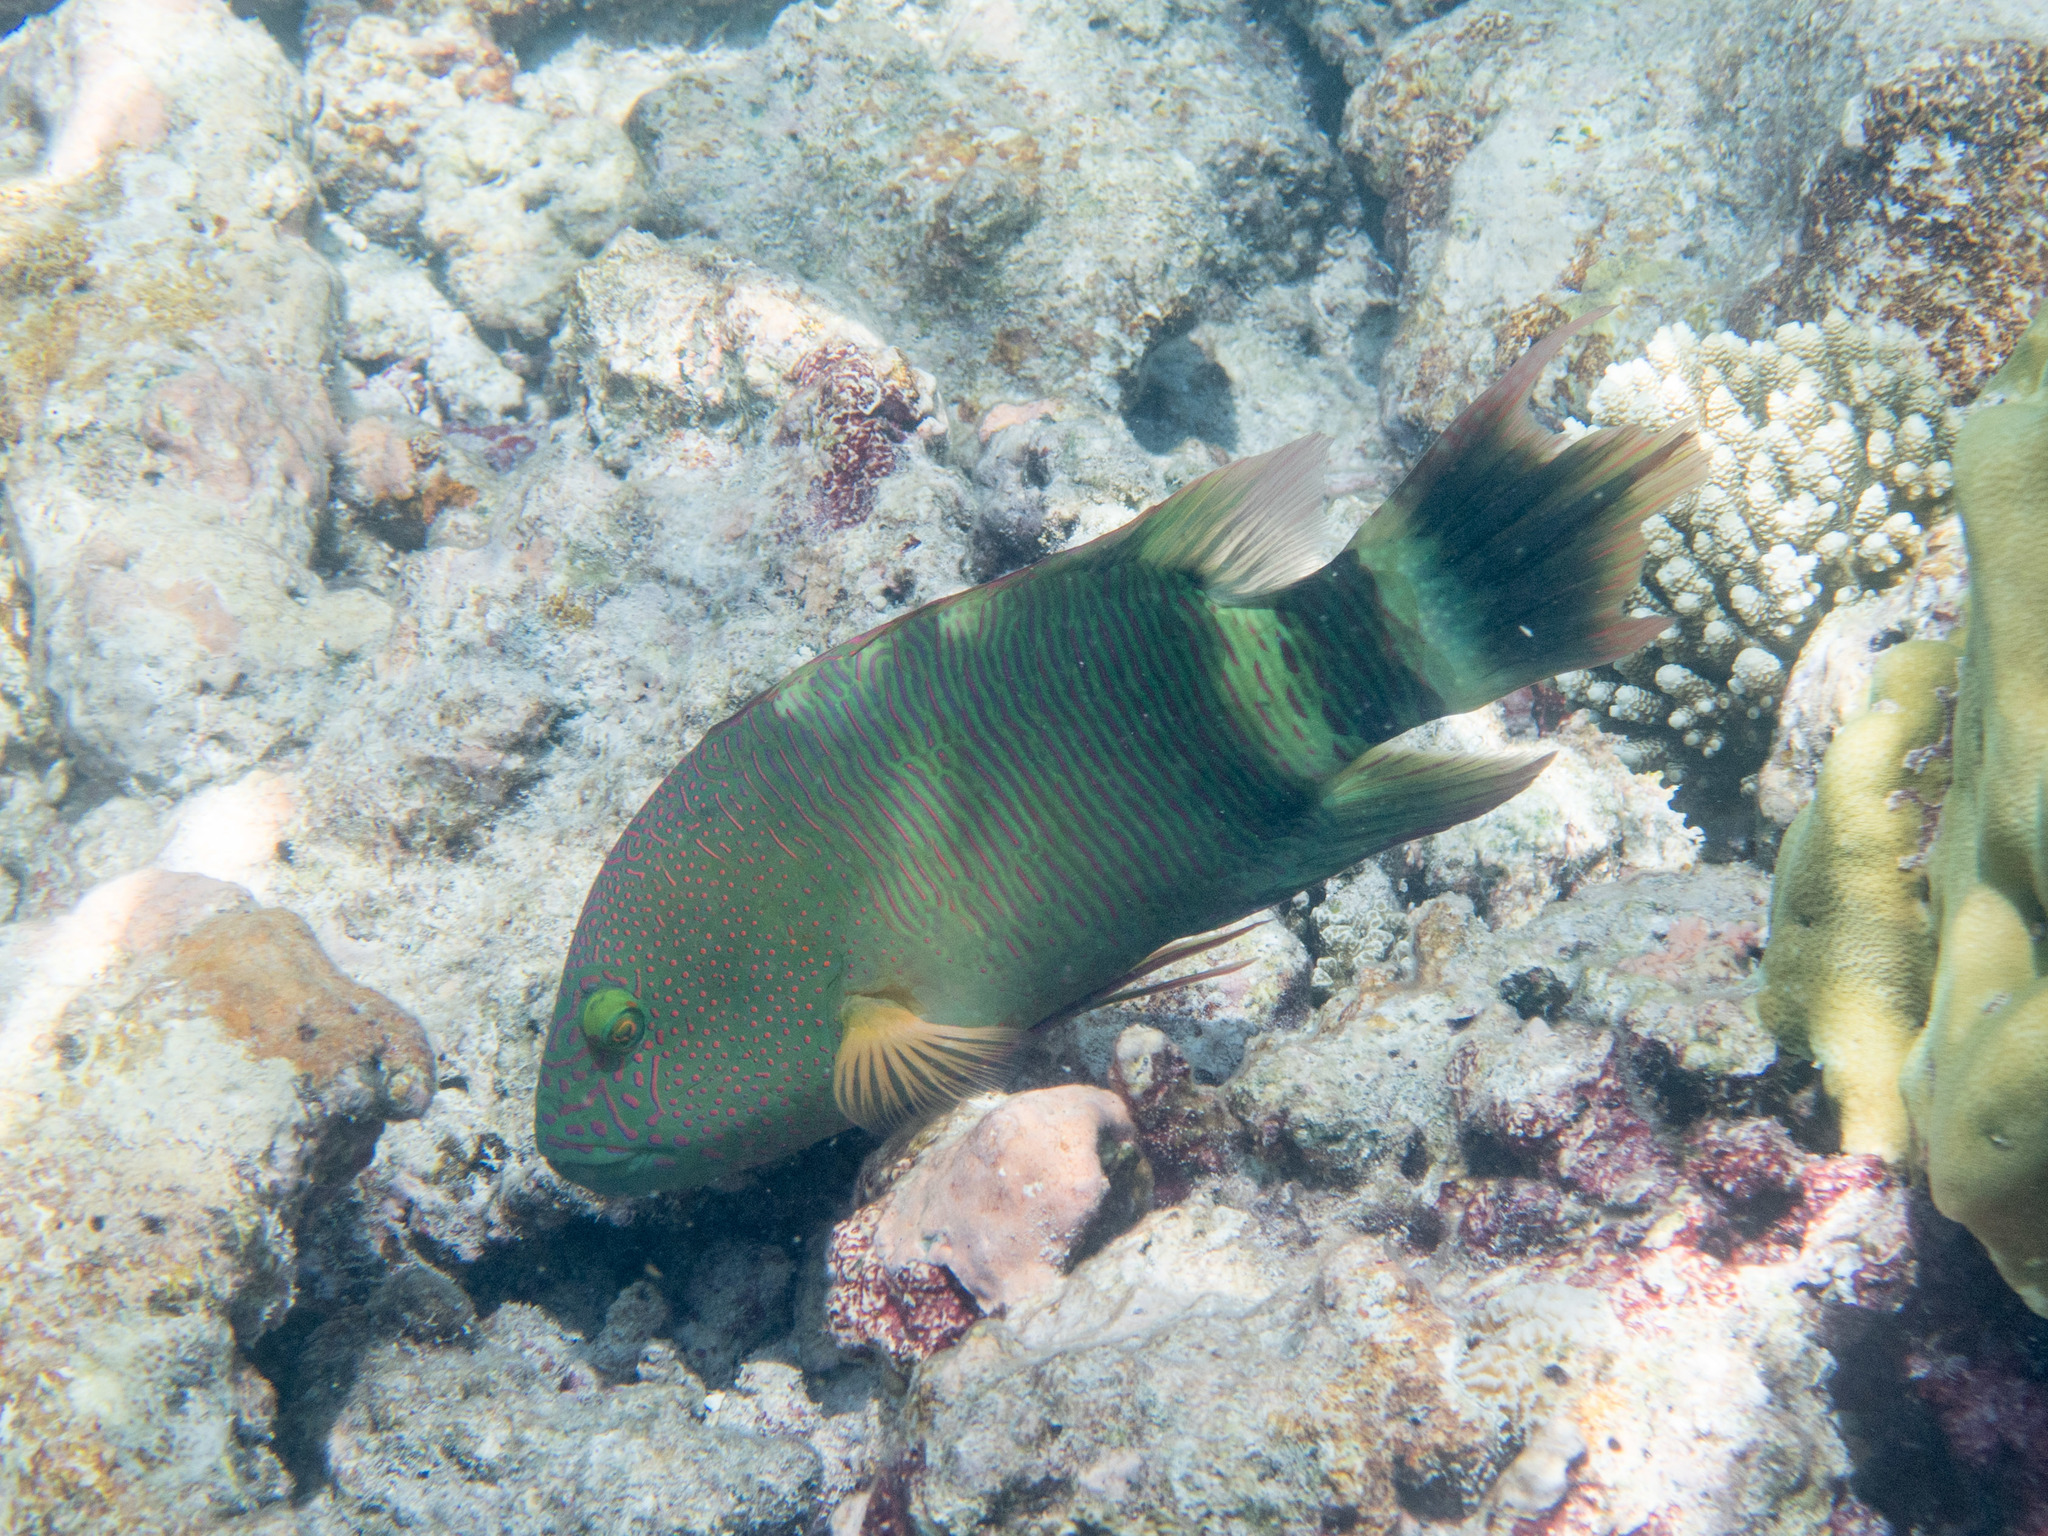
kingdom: Animalia
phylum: Chordata
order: Perciformes
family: Labridae
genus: Cheilinus
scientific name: Cheilinus trilobatus
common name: Tripletail maori wrasse
